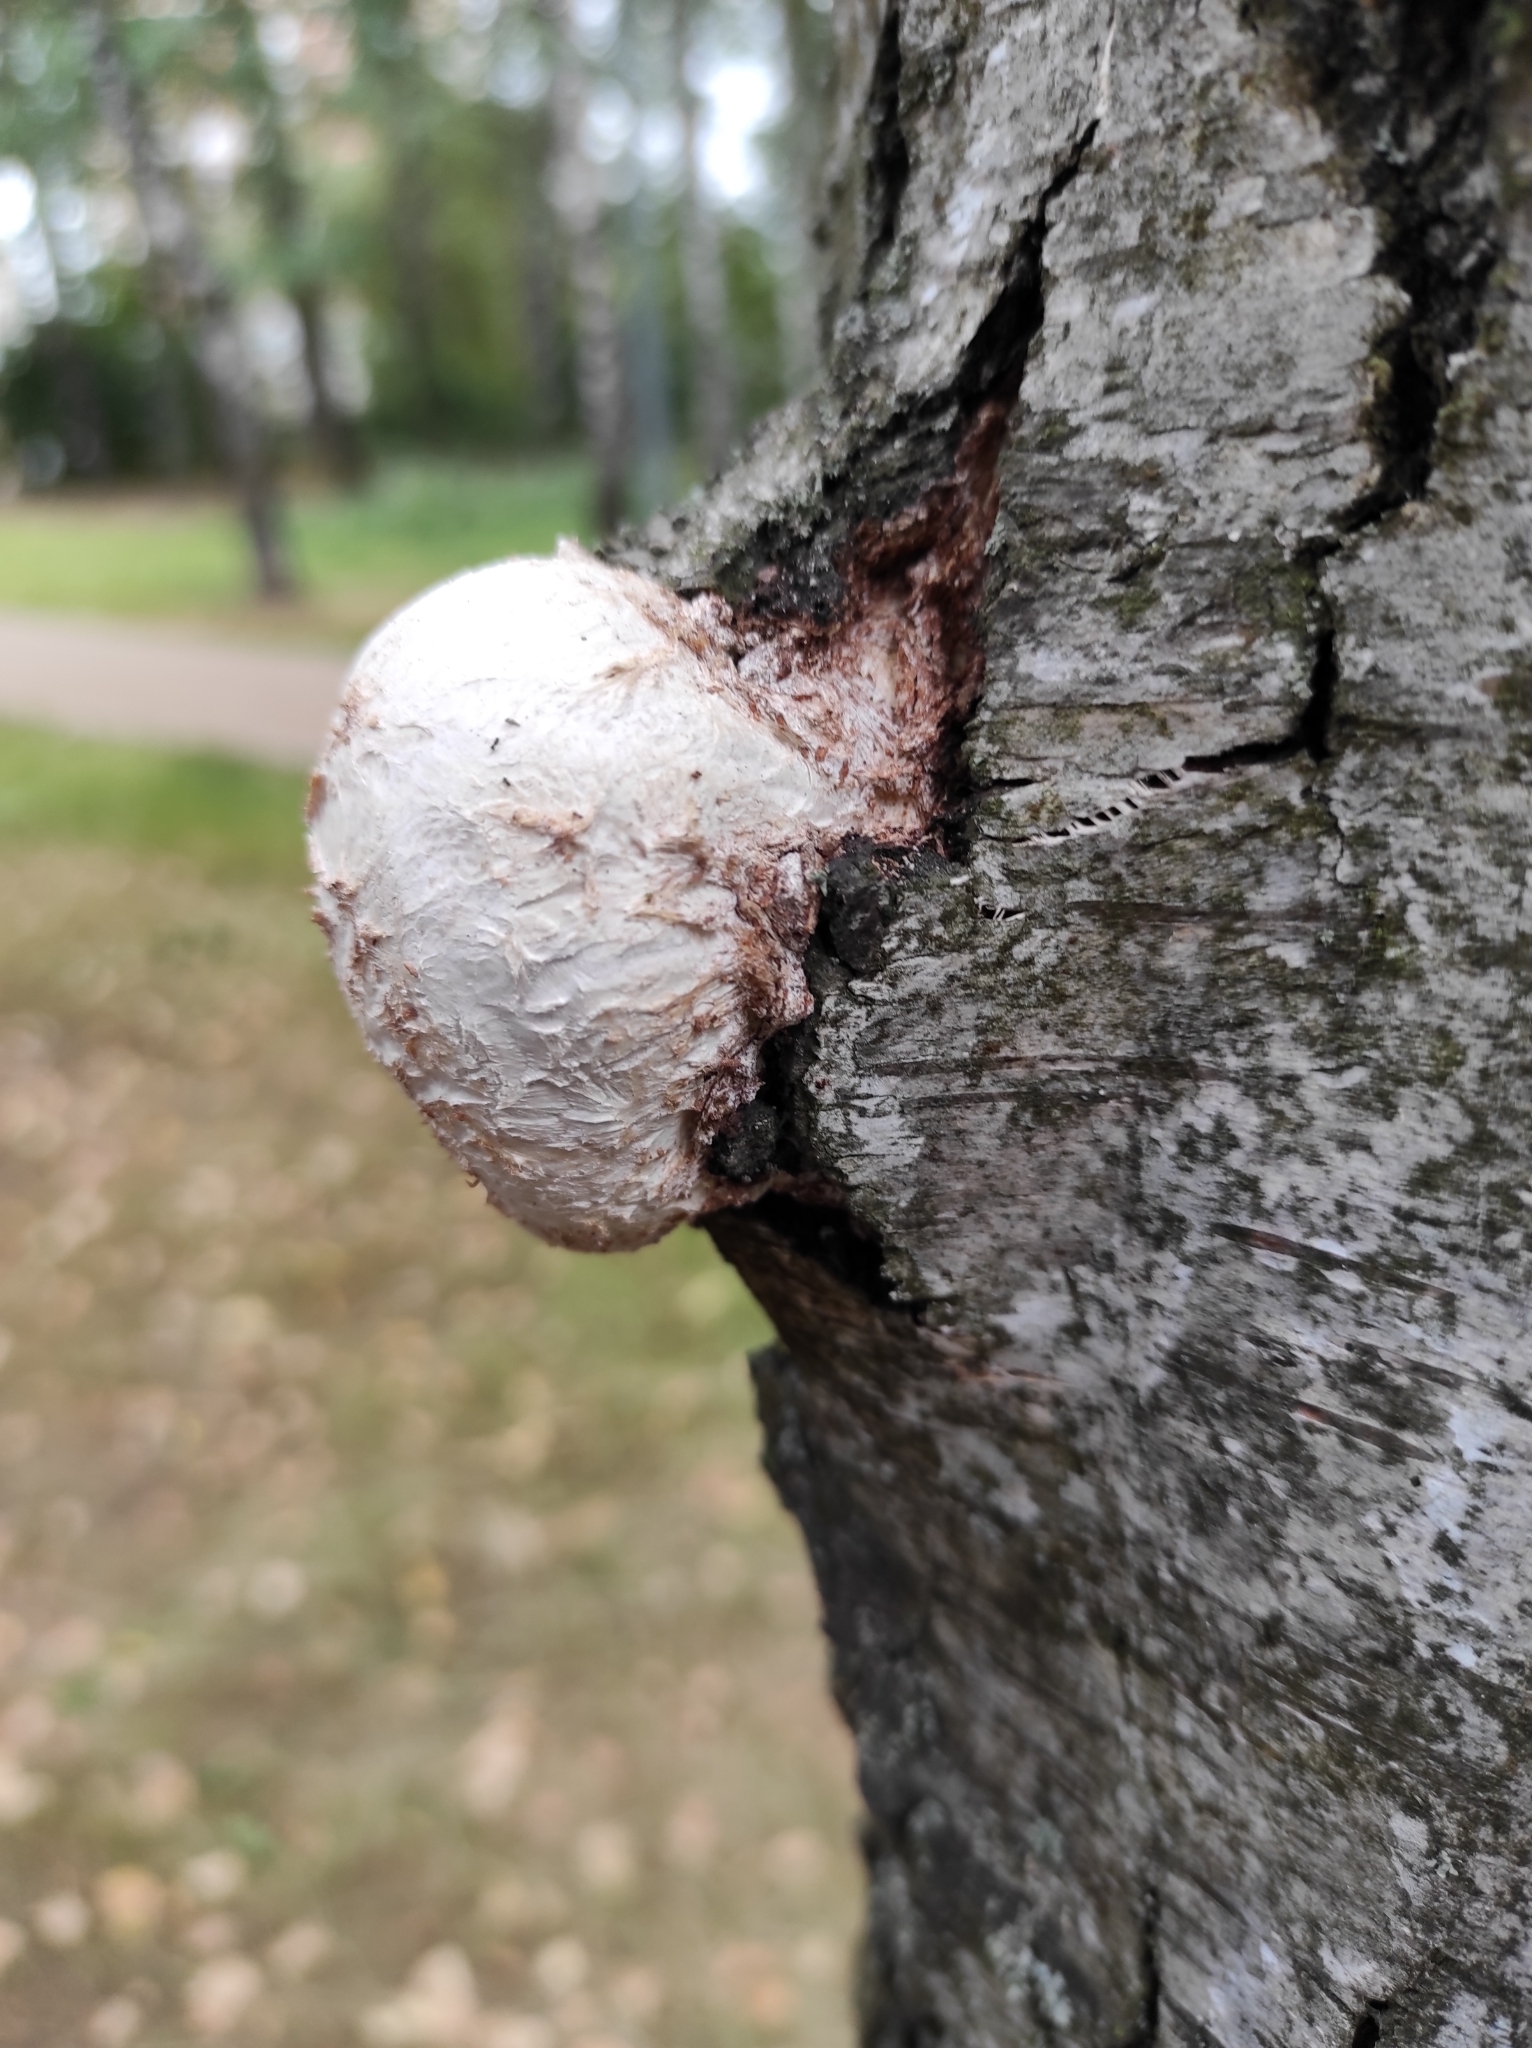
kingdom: Fungi
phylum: Basidiomycota
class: Agaricomycetes
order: Polyporales
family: Fomitopsidaceae
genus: Fomitopsis
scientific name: Fomitopsis betulina
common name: Birch polypore
